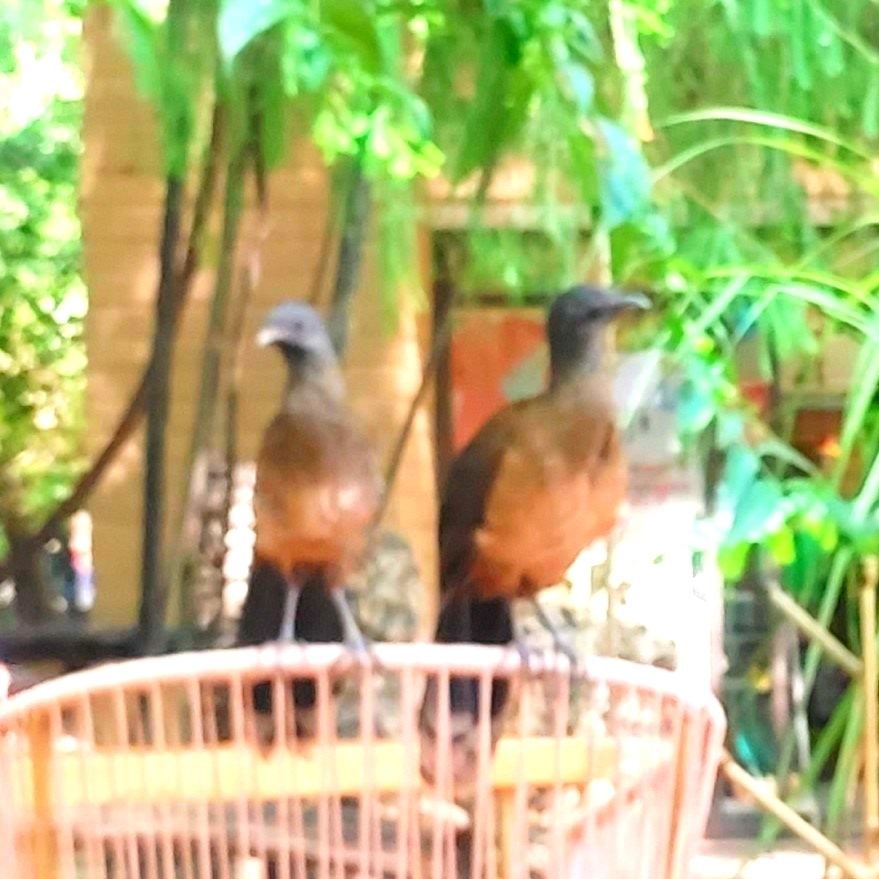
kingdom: Animalia
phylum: Chordata
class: Aves
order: Galliformes
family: Cracidae
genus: Ortalis
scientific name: Ortalis vetula
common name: Plain chachalaca
